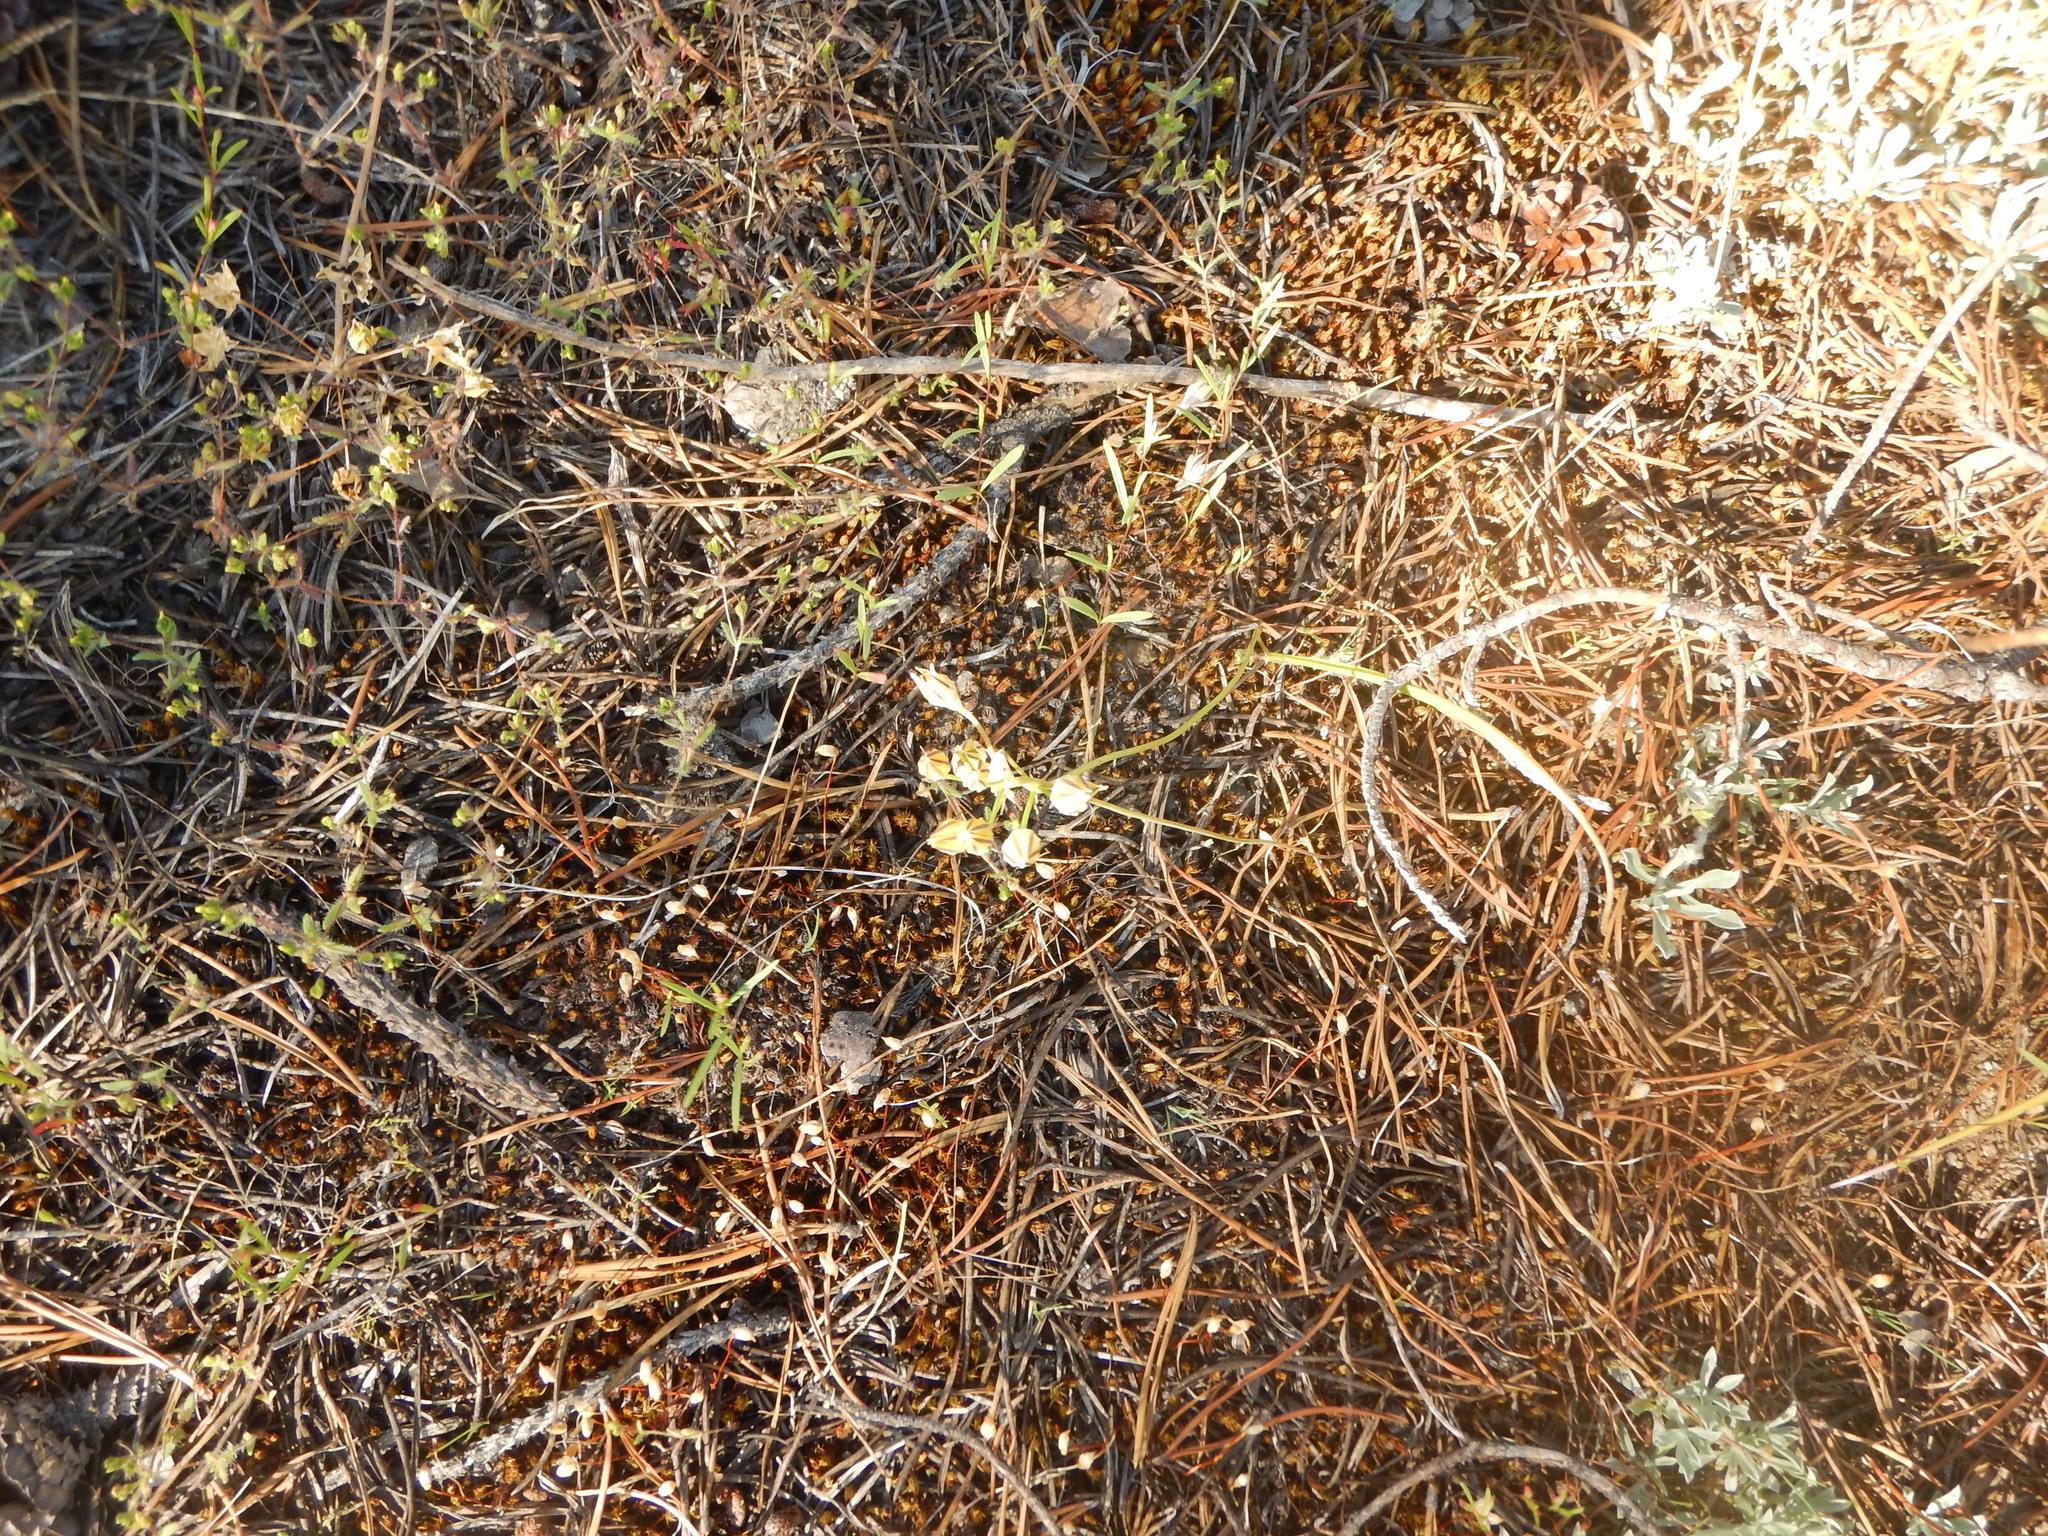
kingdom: Plantae
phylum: Tracheophyta
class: Liliopsida
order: Asparagales
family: Asparagaceae
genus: Triteleia
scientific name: Triteleia ixioides
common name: Yellow-brodiaea
